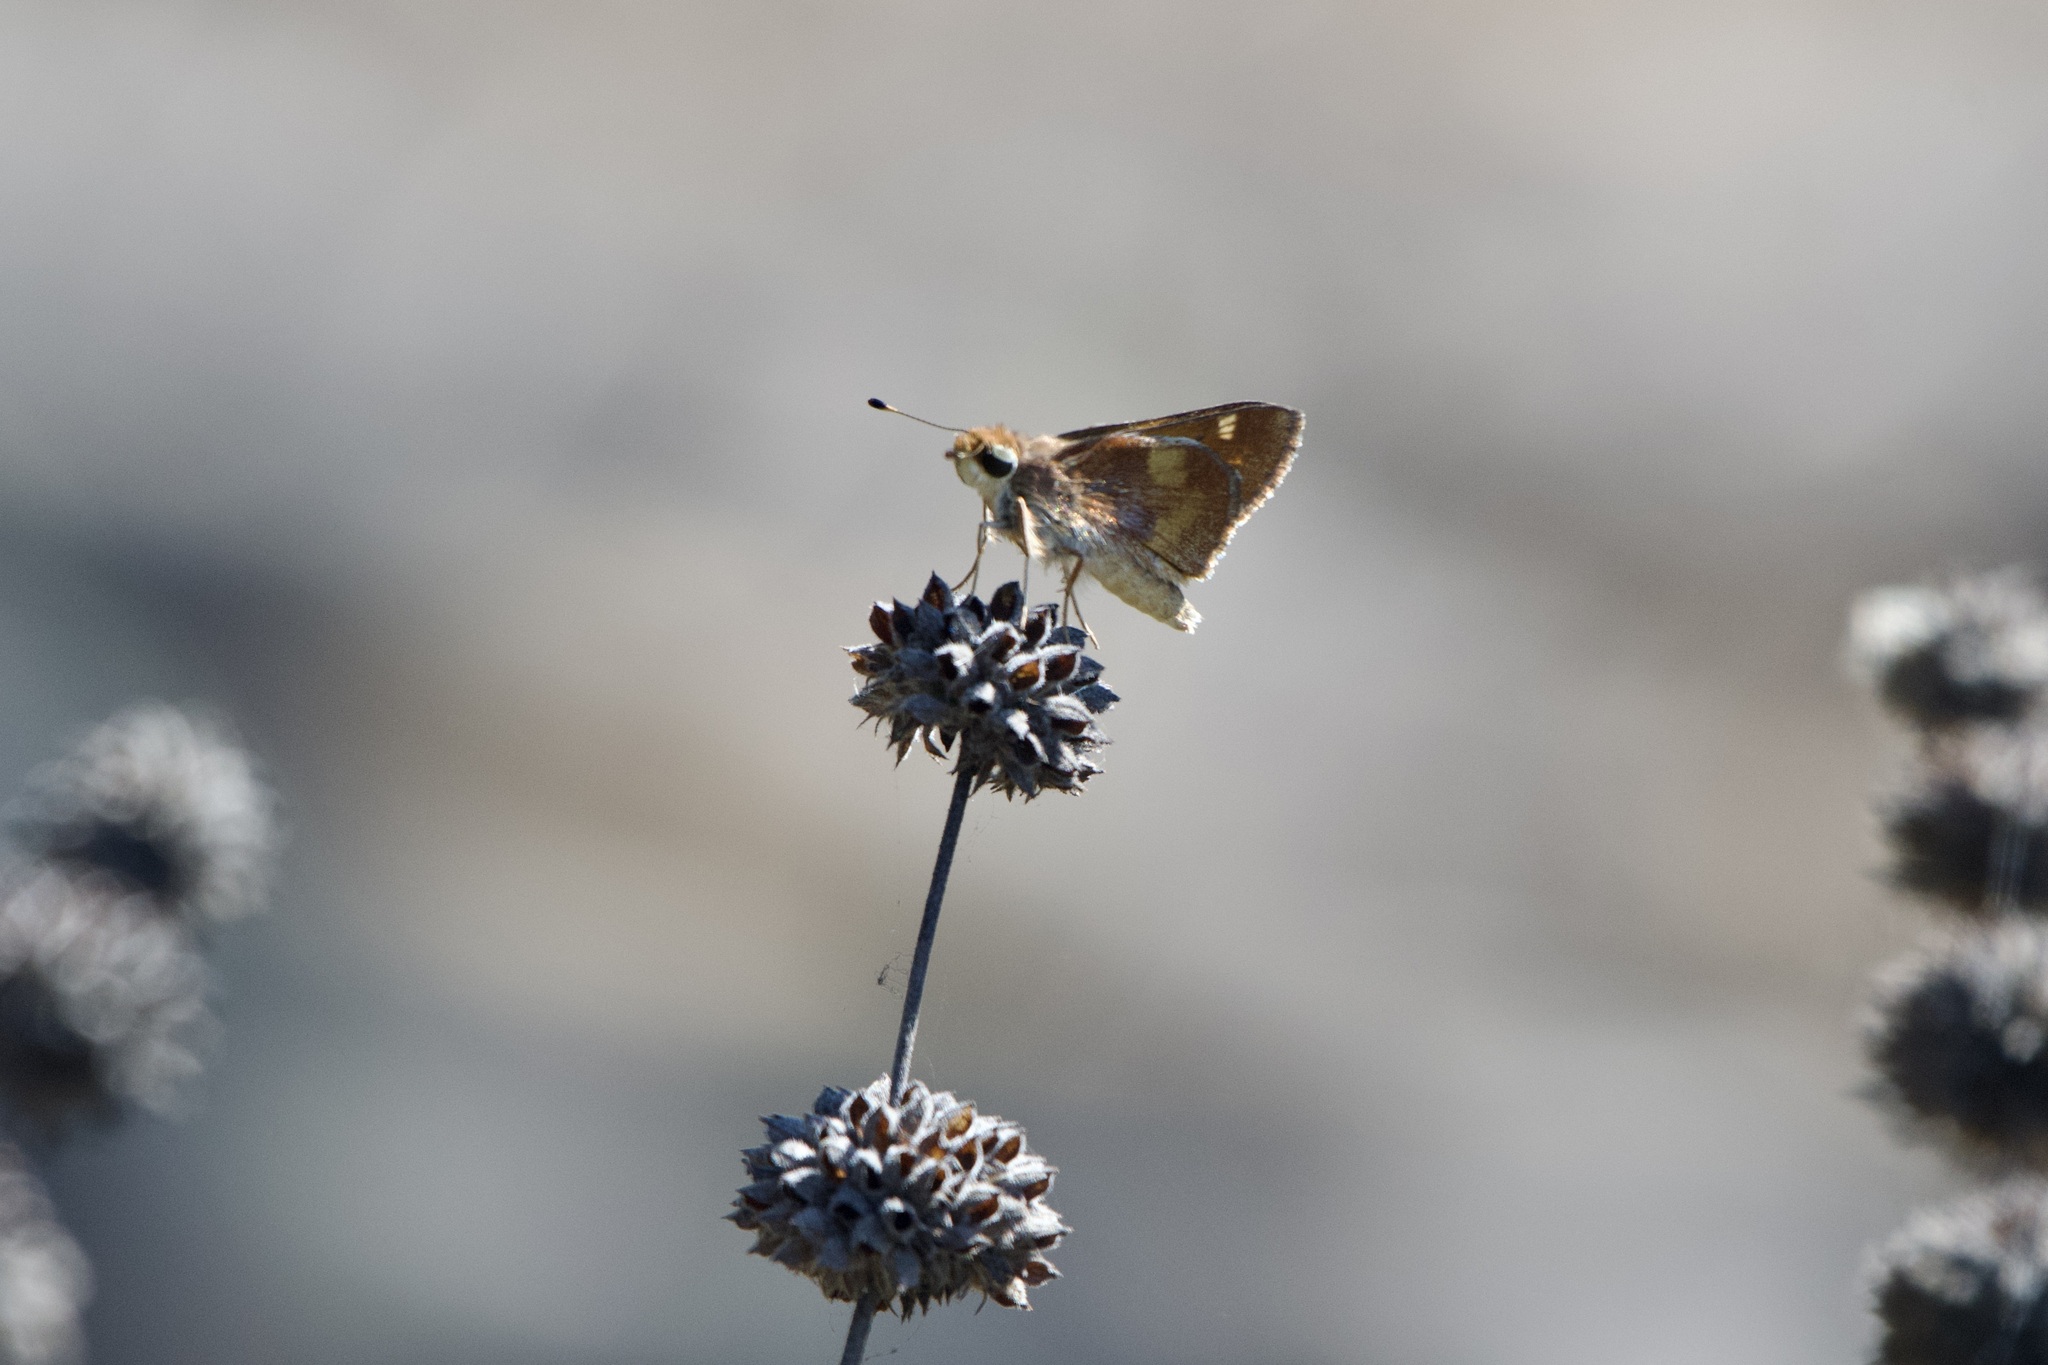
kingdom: Animalia
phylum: Arthropoda
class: Insecta
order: Lepidoptera
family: Hesperiidae
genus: Lon
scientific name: Lon melane
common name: Umber skipper
